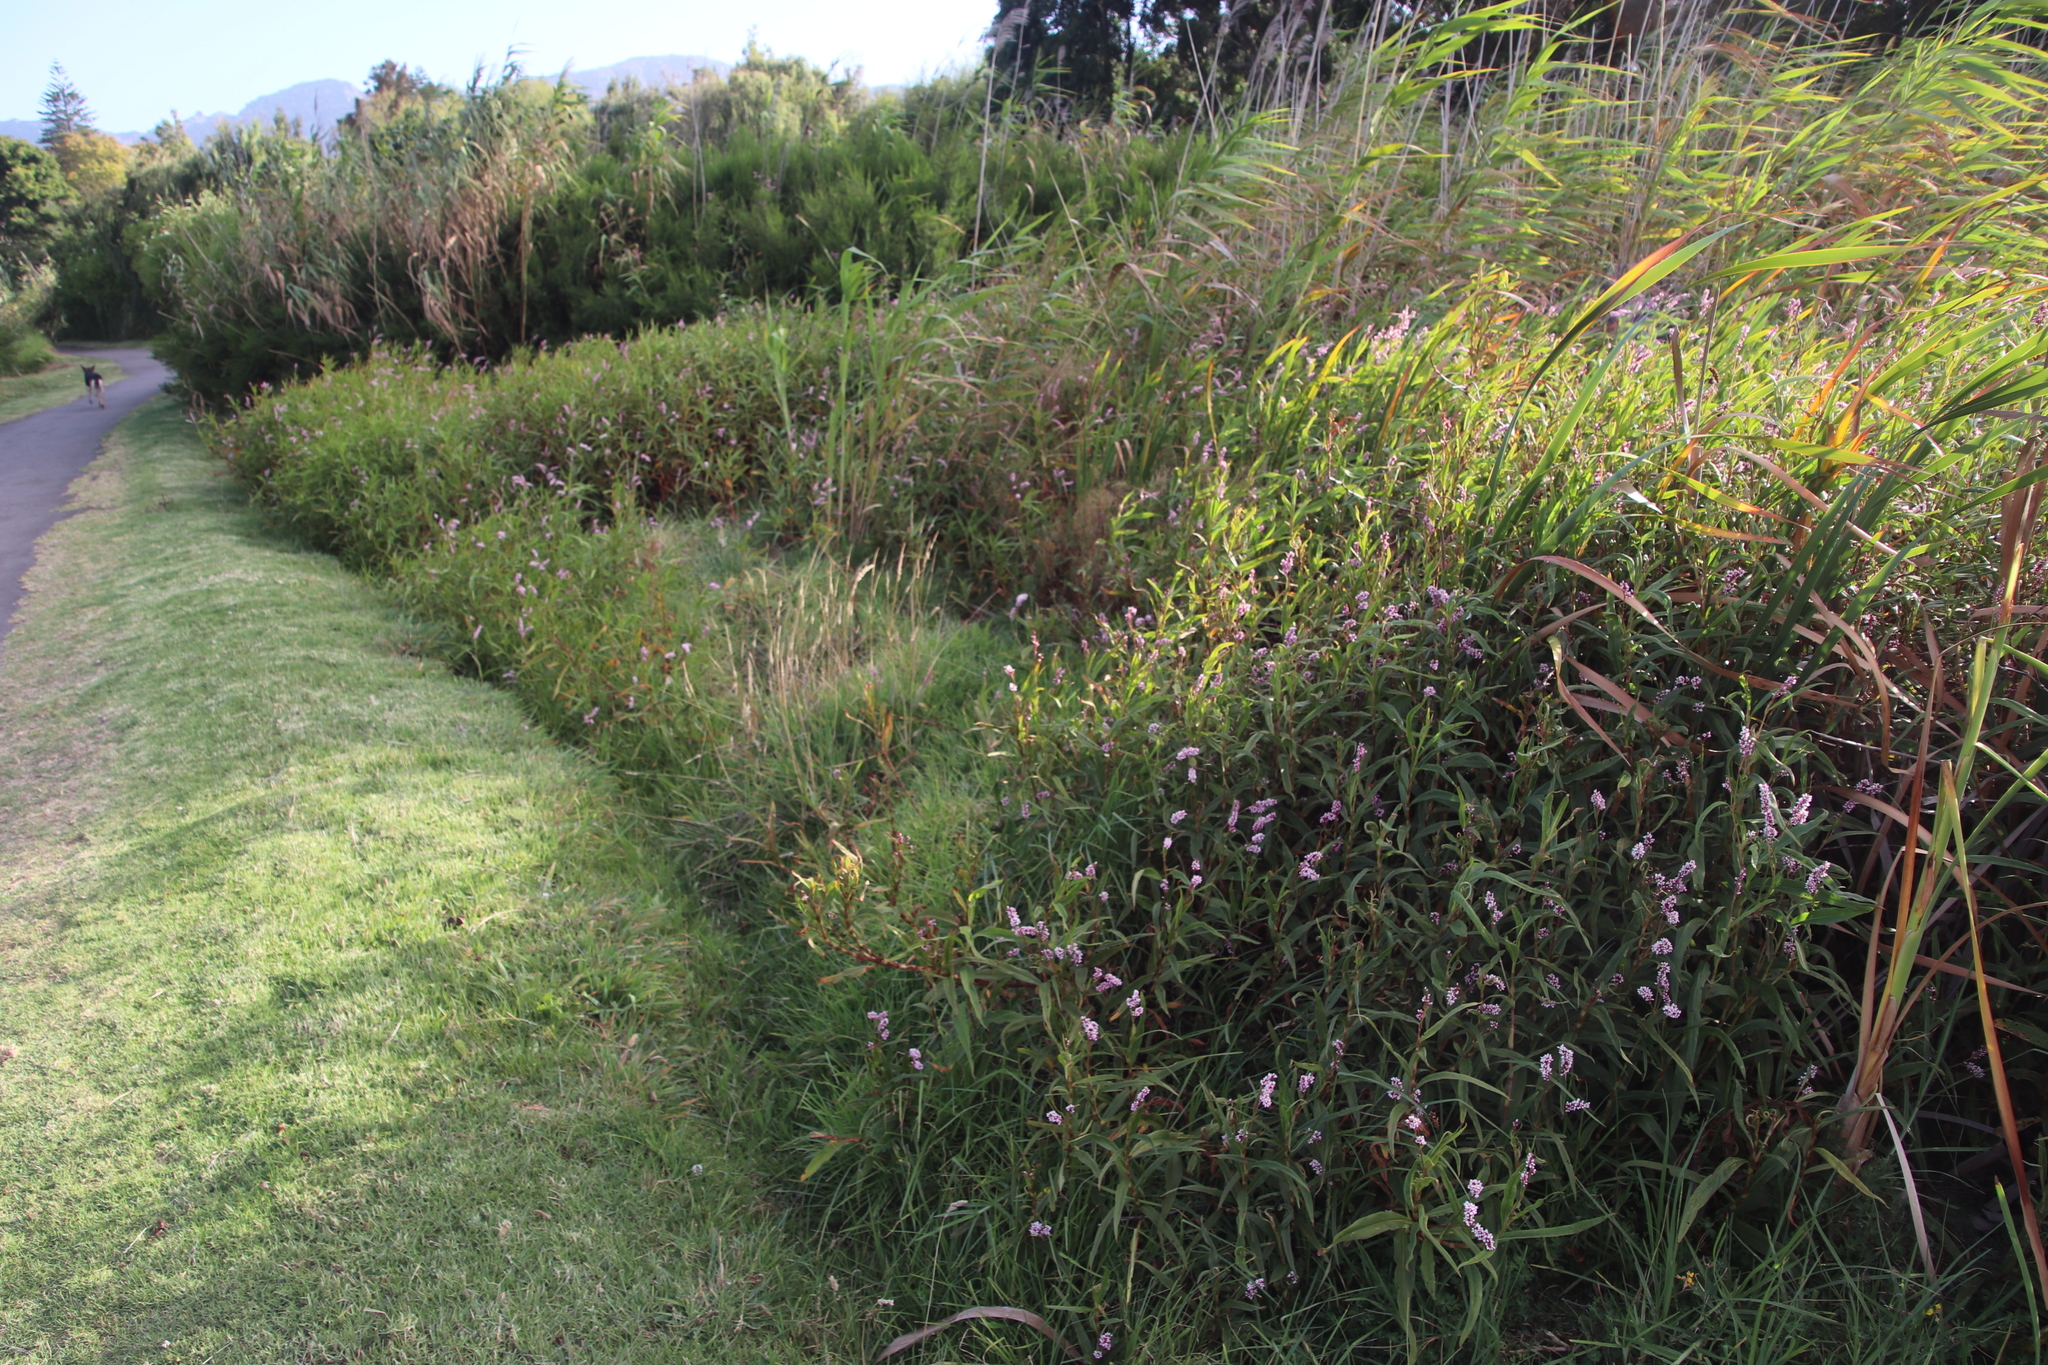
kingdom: Plantae
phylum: Tracheophyta
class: Magnoliopsida
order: Caryophyllales
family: Polygonaceae
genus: Persicaria
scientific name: Persicaria madagascariensis
